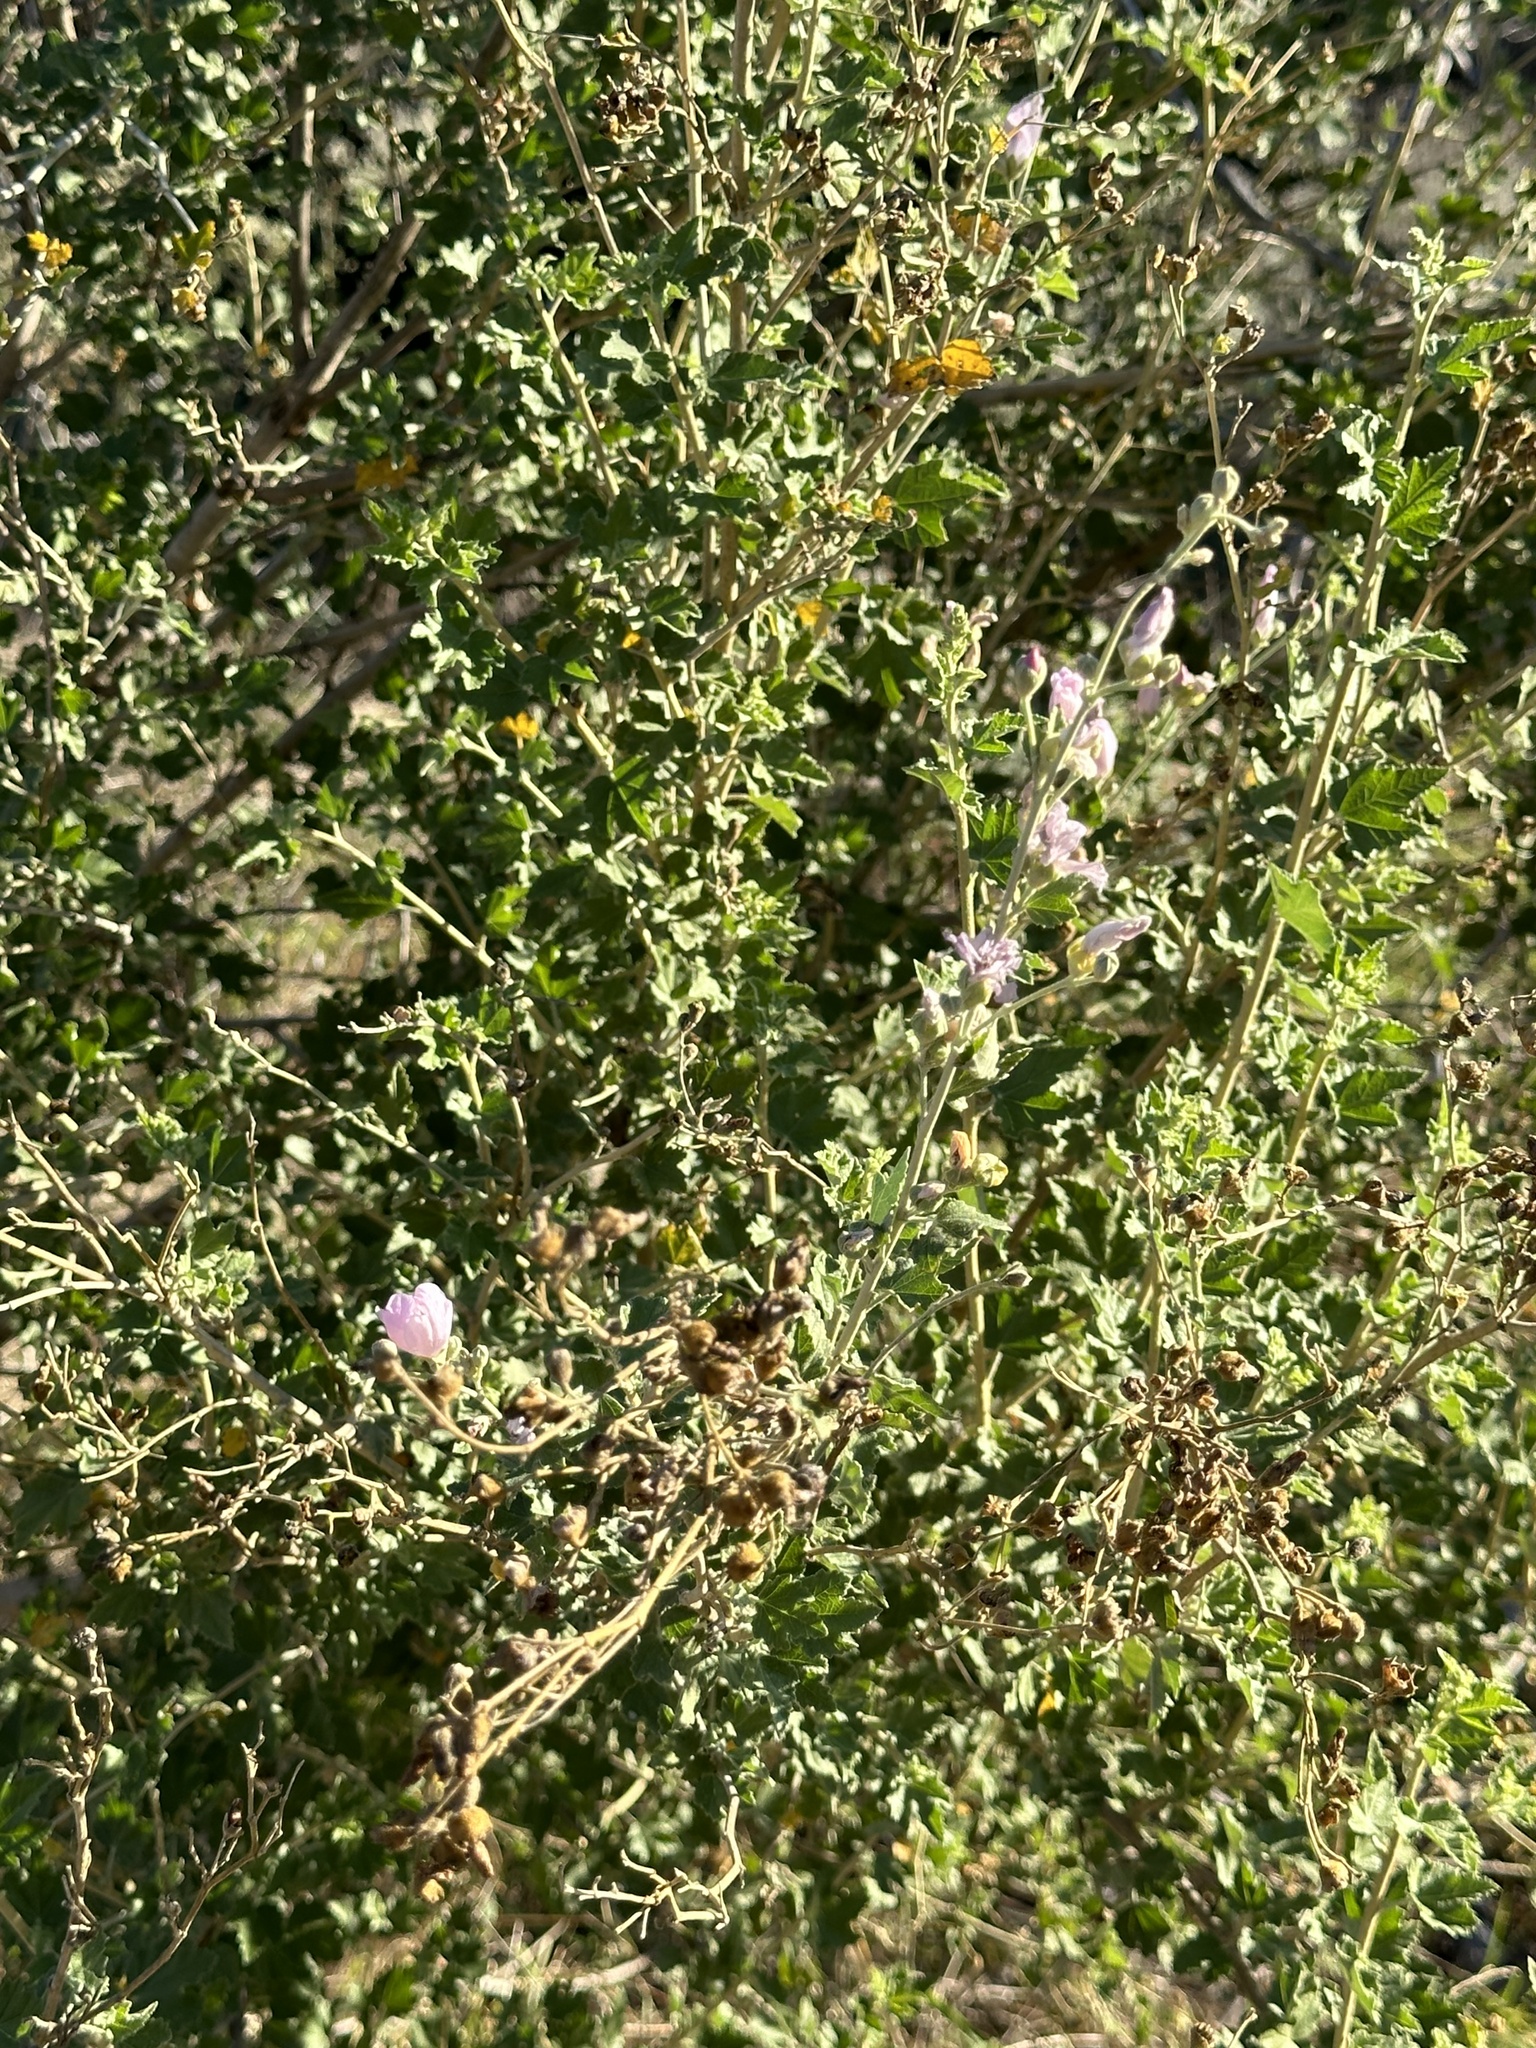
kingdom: Plantae
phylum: Tracheophyta
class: Magnoliopsida
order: Malvales
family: Malvaceae
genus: Malacothamnus
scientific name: Malacothamnus fasciculatus
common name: Sant cruz island bush-mallow
